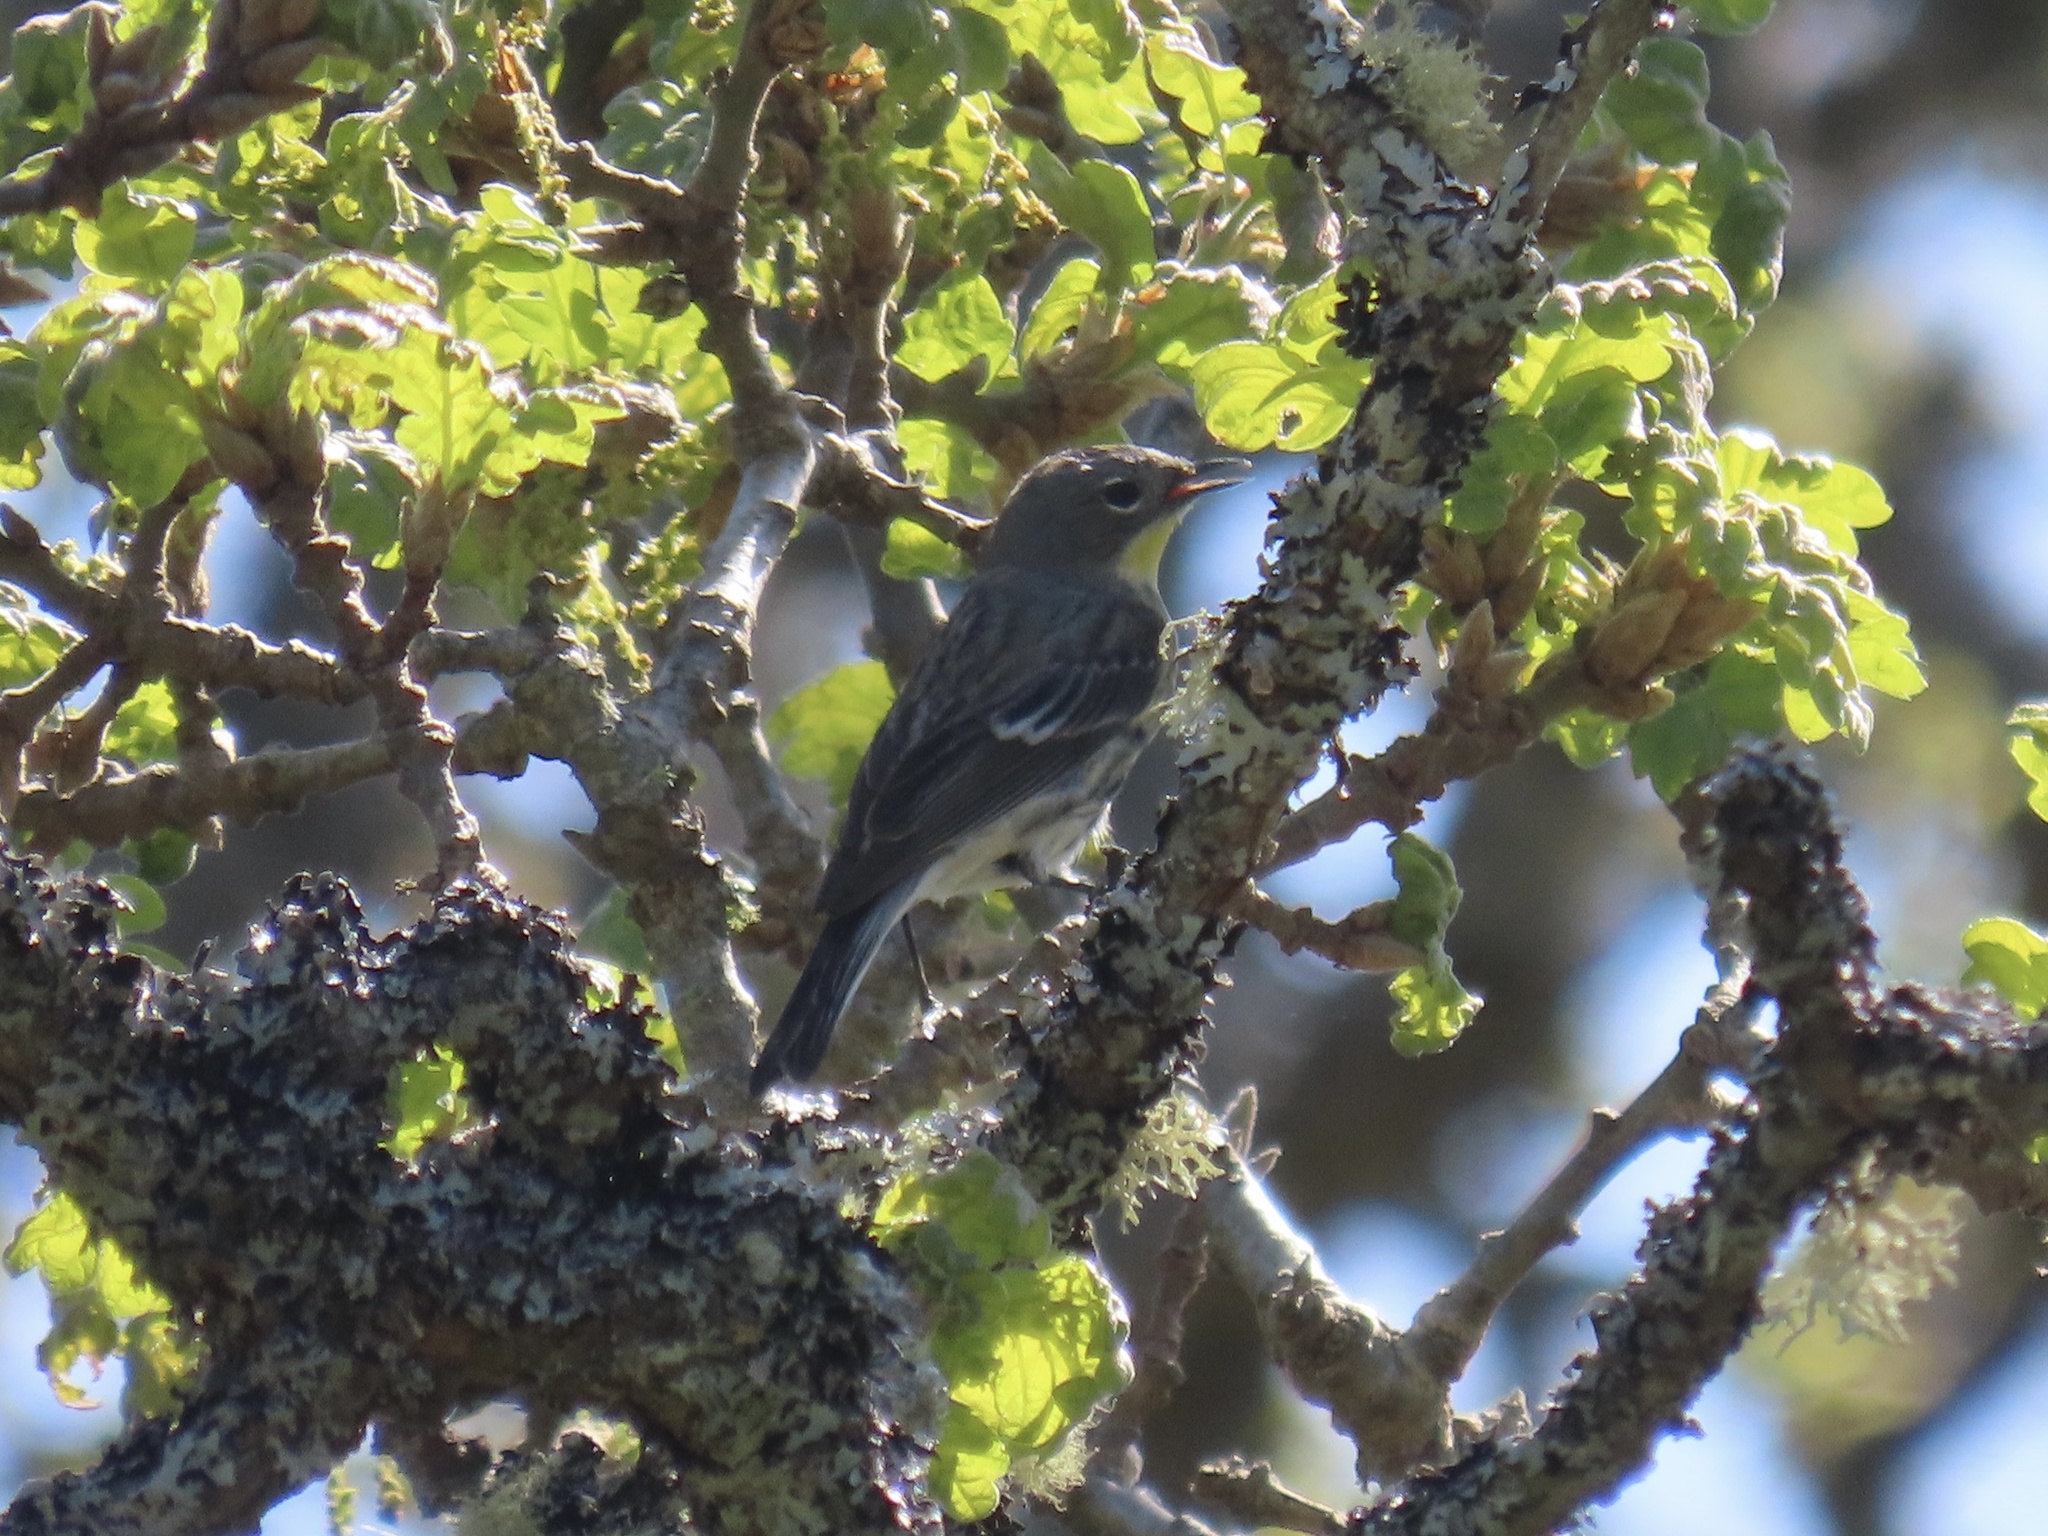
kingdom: Animalia
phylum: Chordata
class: Aves
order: Passeriformes
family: Parulidae
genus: Setophaga
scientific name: Setophaga coronata
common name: Myrtle warbler
